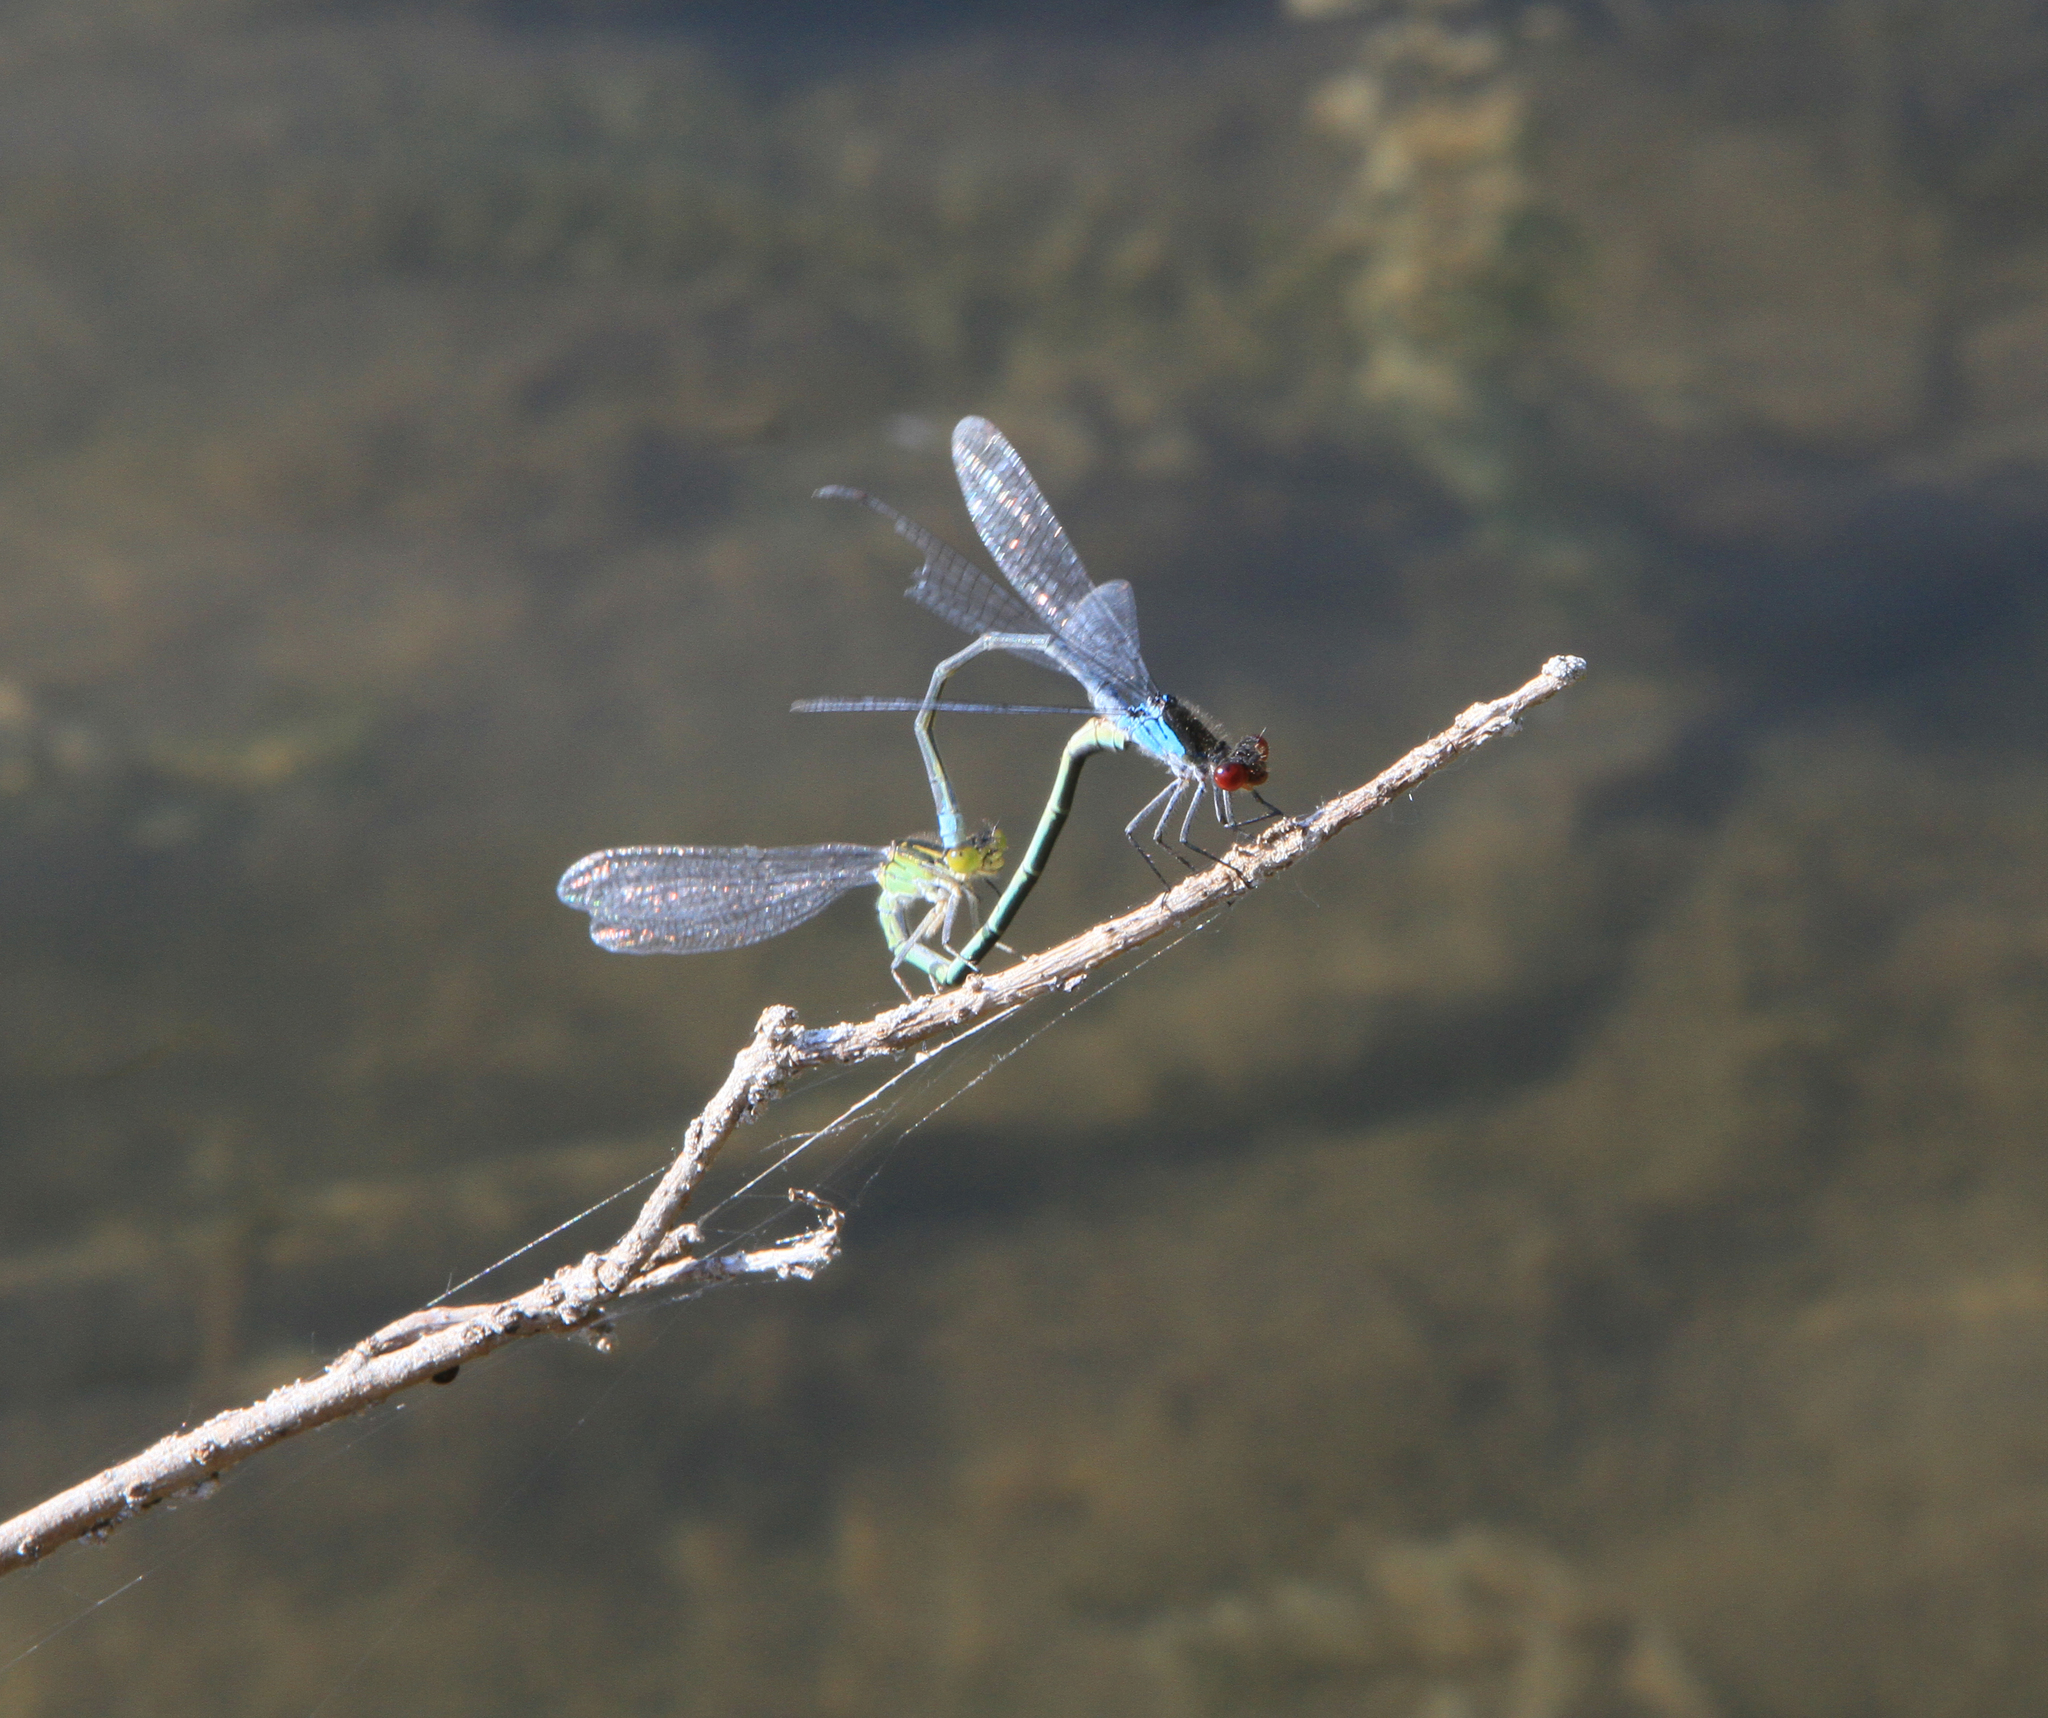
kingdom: Animalia
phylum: Arthropoda
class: Insecta
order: Odonata
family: Coenagrionidae
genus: Erythromma
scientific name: Erythromma najas
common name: Red-eyed damselfly
